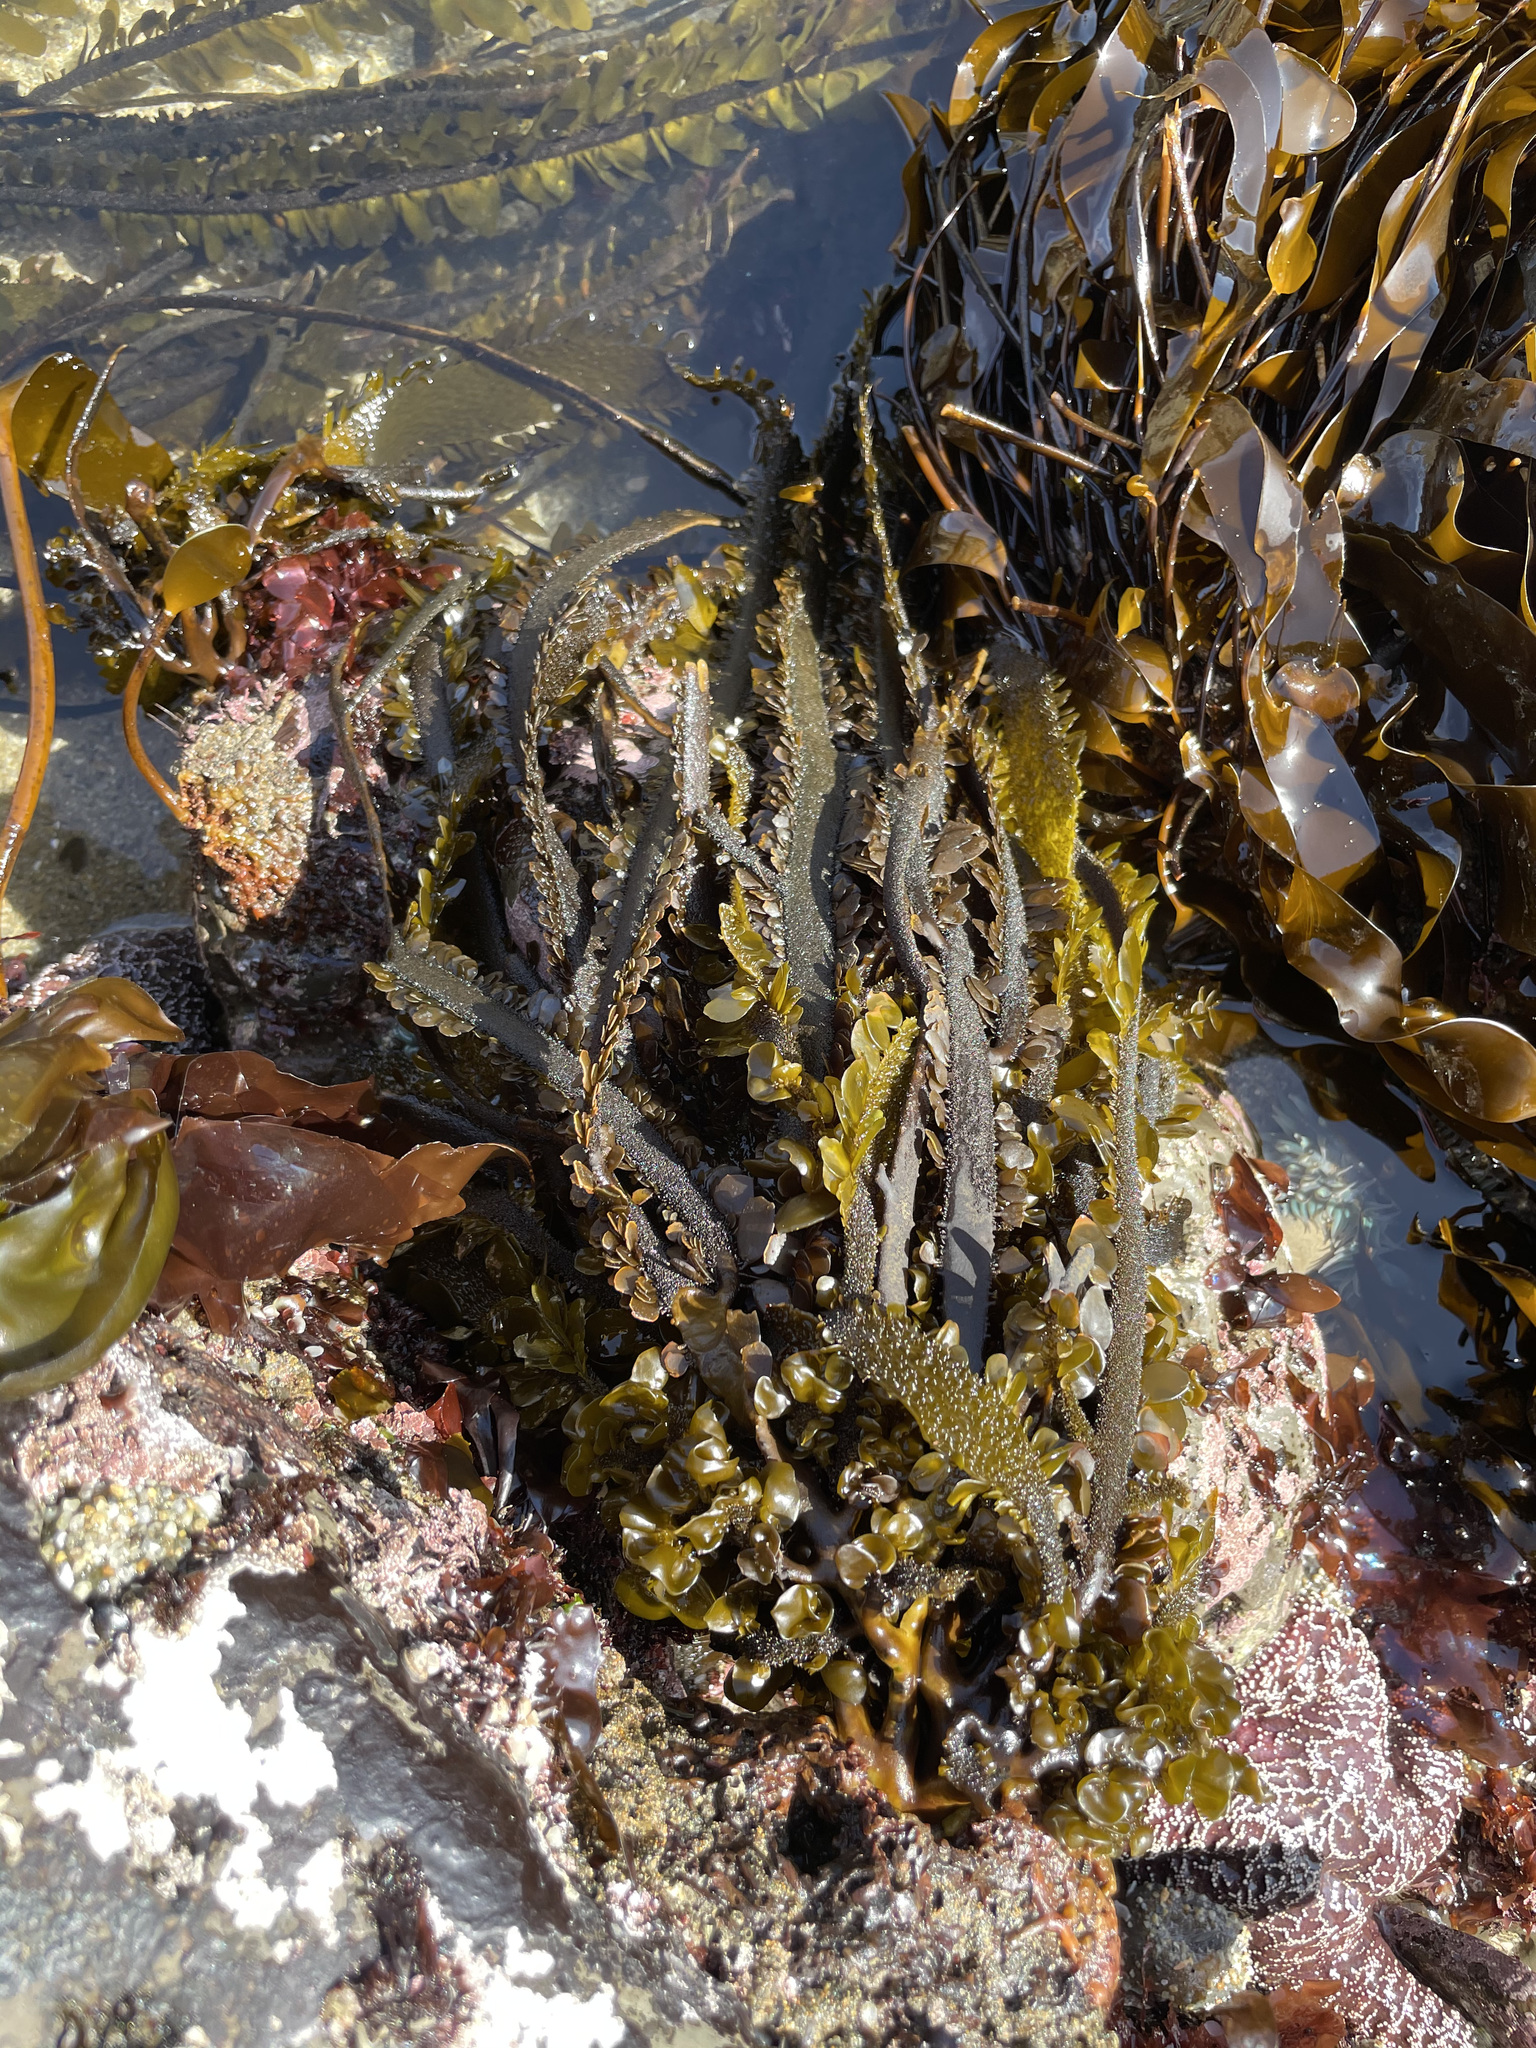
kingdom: Chromista
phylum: Ochrophyta
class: Phaeophyceae
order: Laminariales
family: Lessoniaceae
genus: Egregia
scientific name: Egregia menziesii
